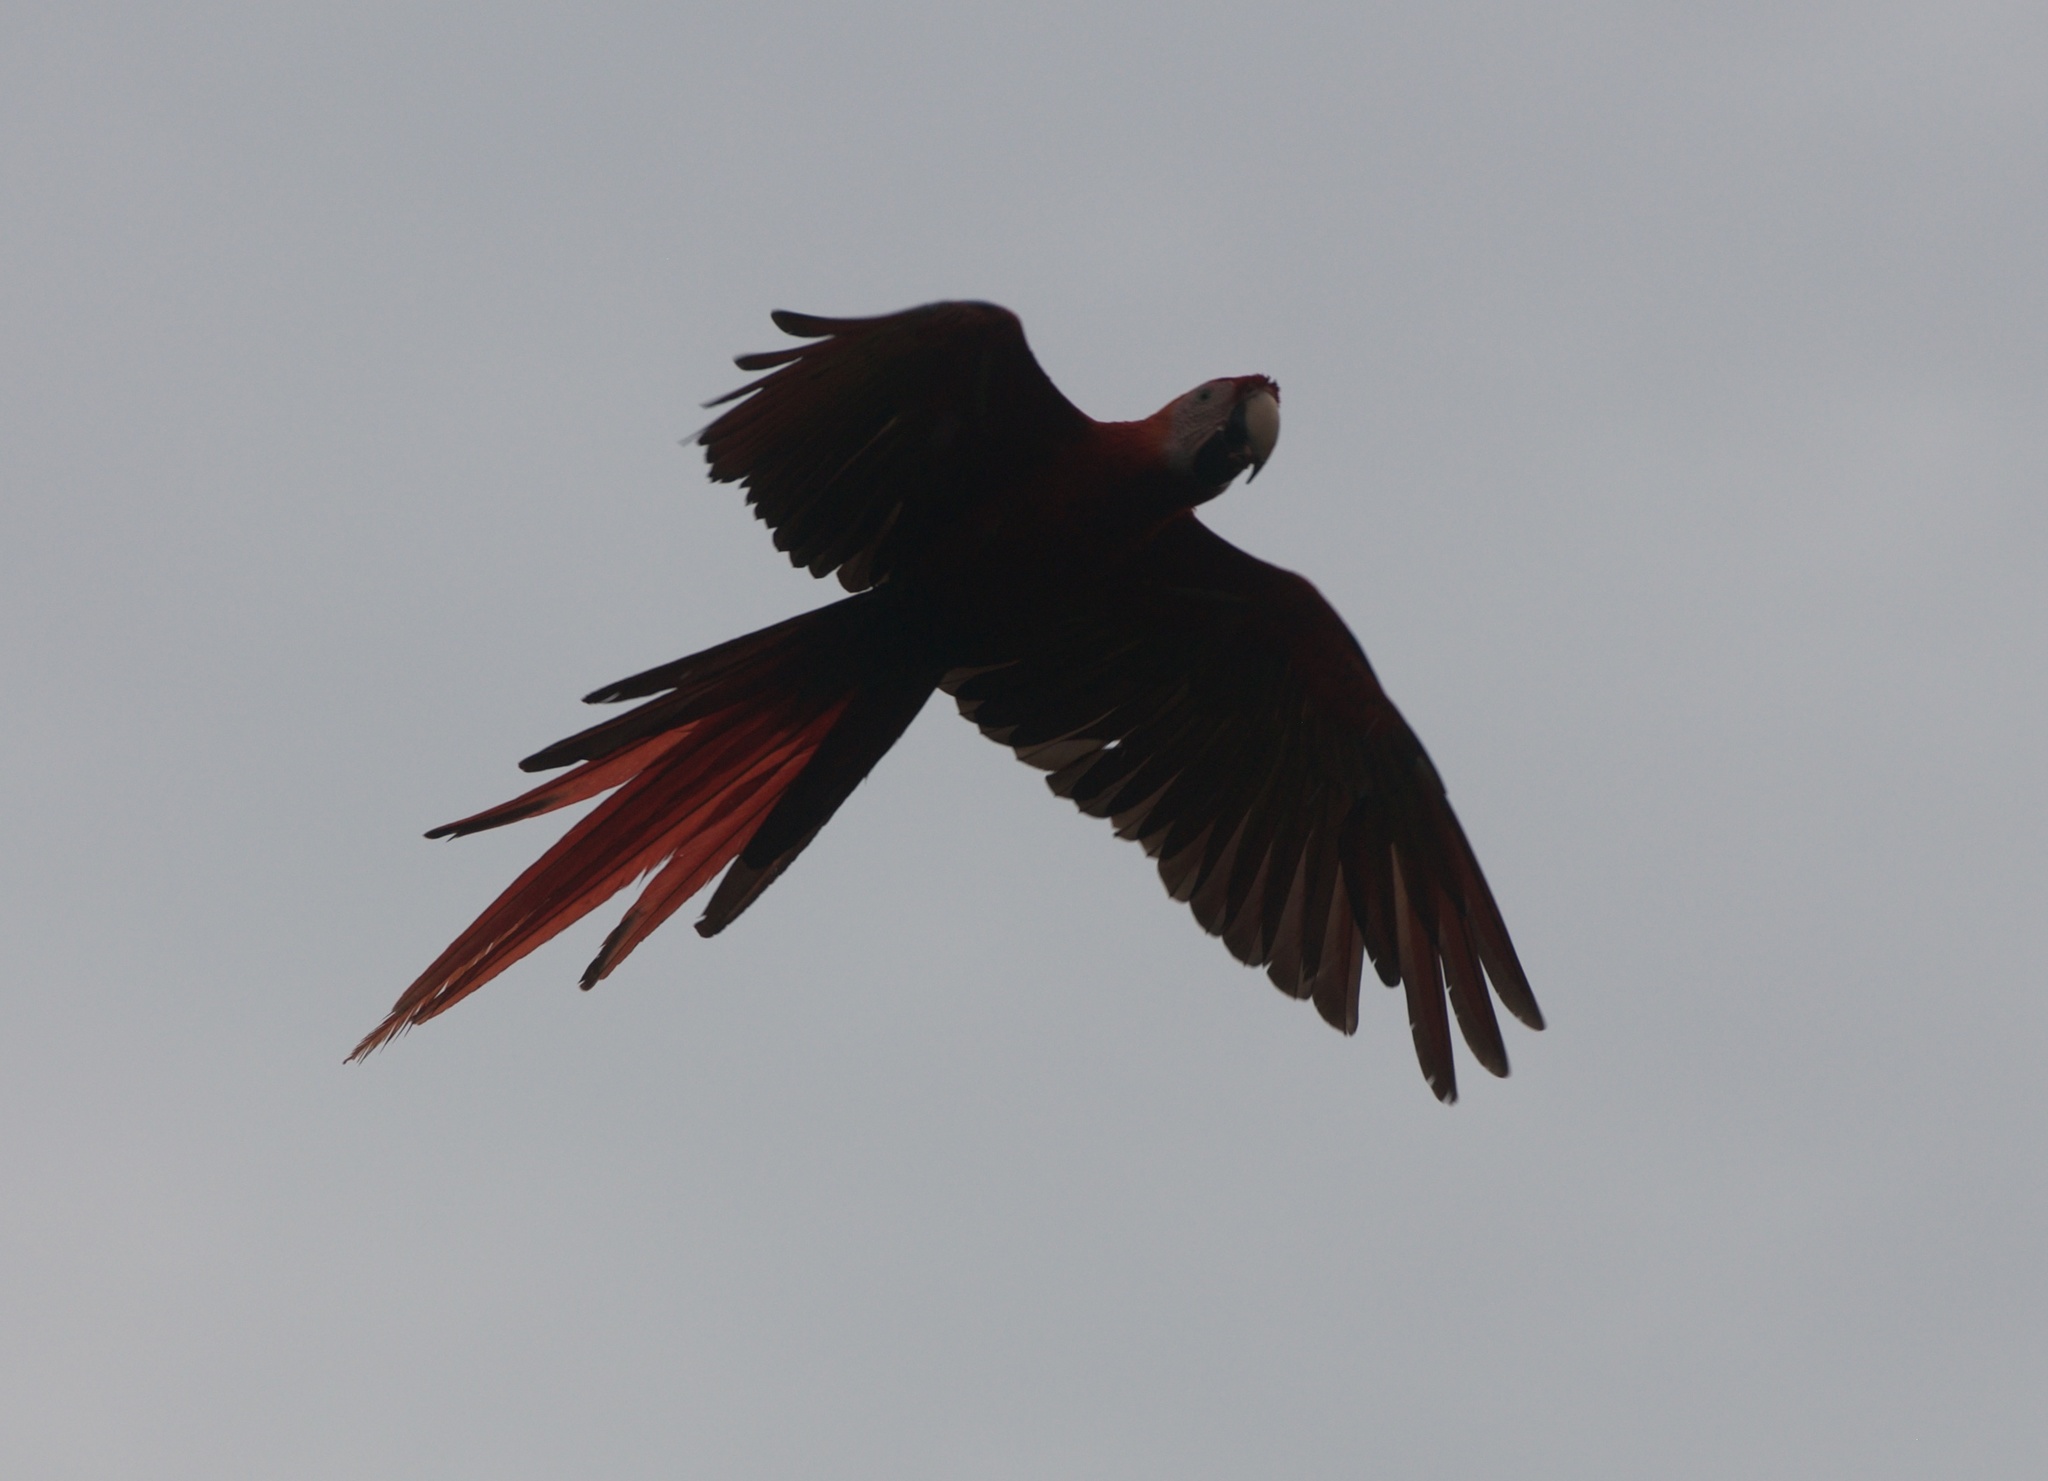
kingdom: Animalia
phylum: Chordata
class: Aves
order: Psittaciformes
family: Psittacidae
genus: Ara
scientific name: Ara macao
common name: Scarlet macaw
